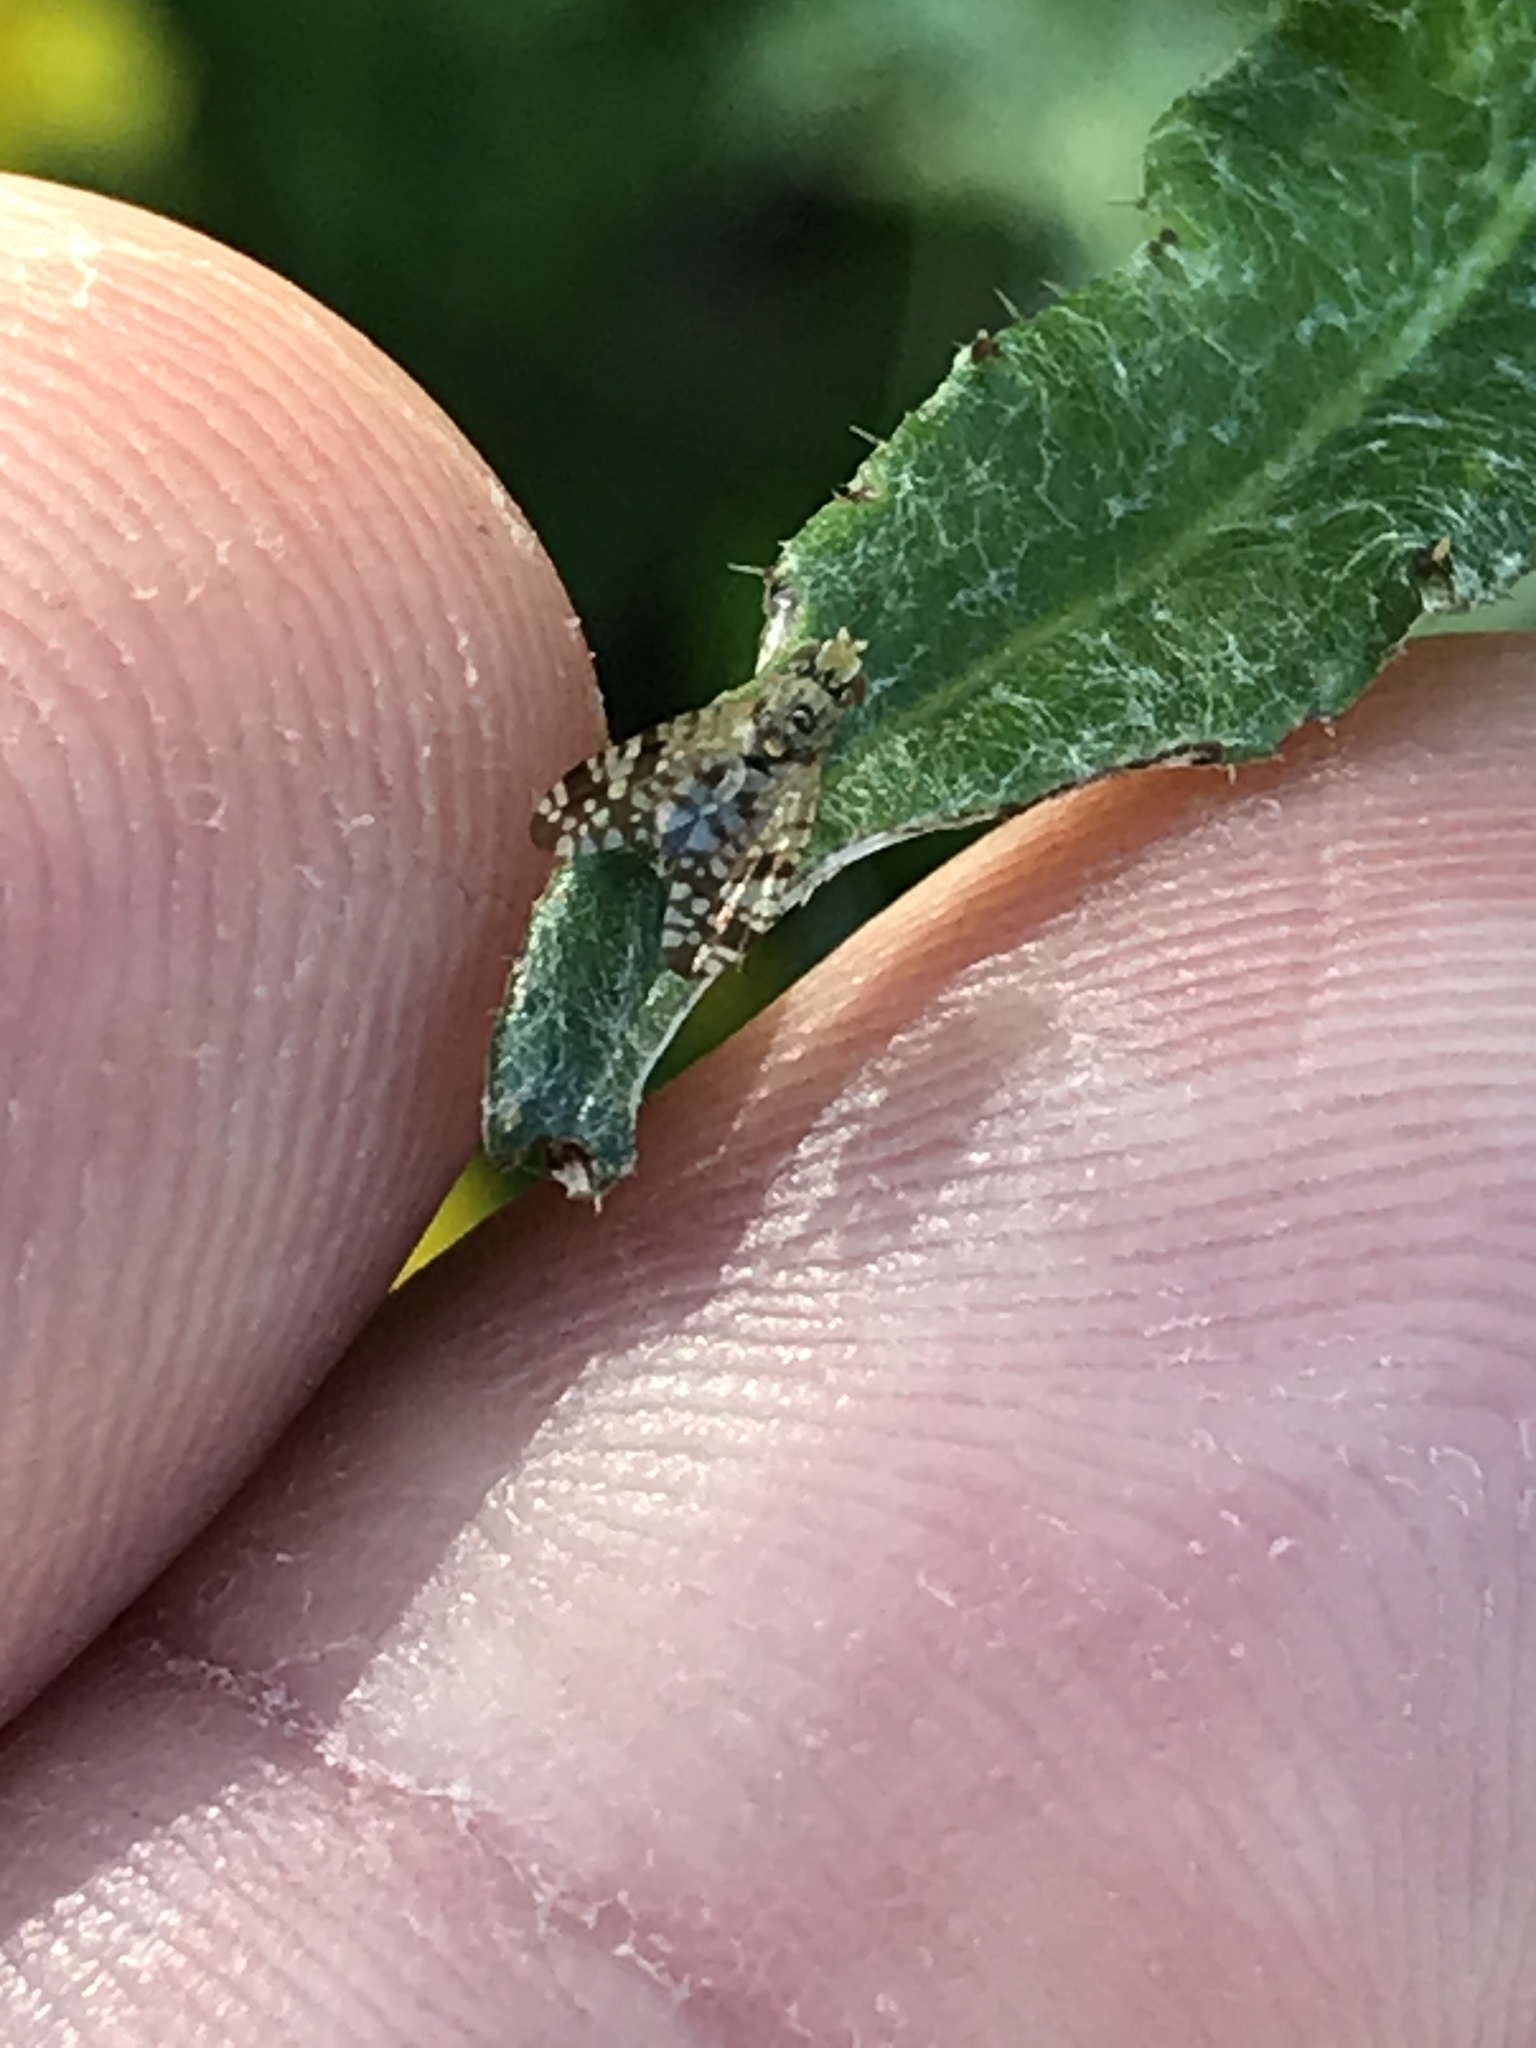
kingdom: Animalia
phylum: Arthropoda
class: Insecta
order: Diptera
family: Tephritidae
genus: Neotephritis
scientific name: Neotephritis finalis
